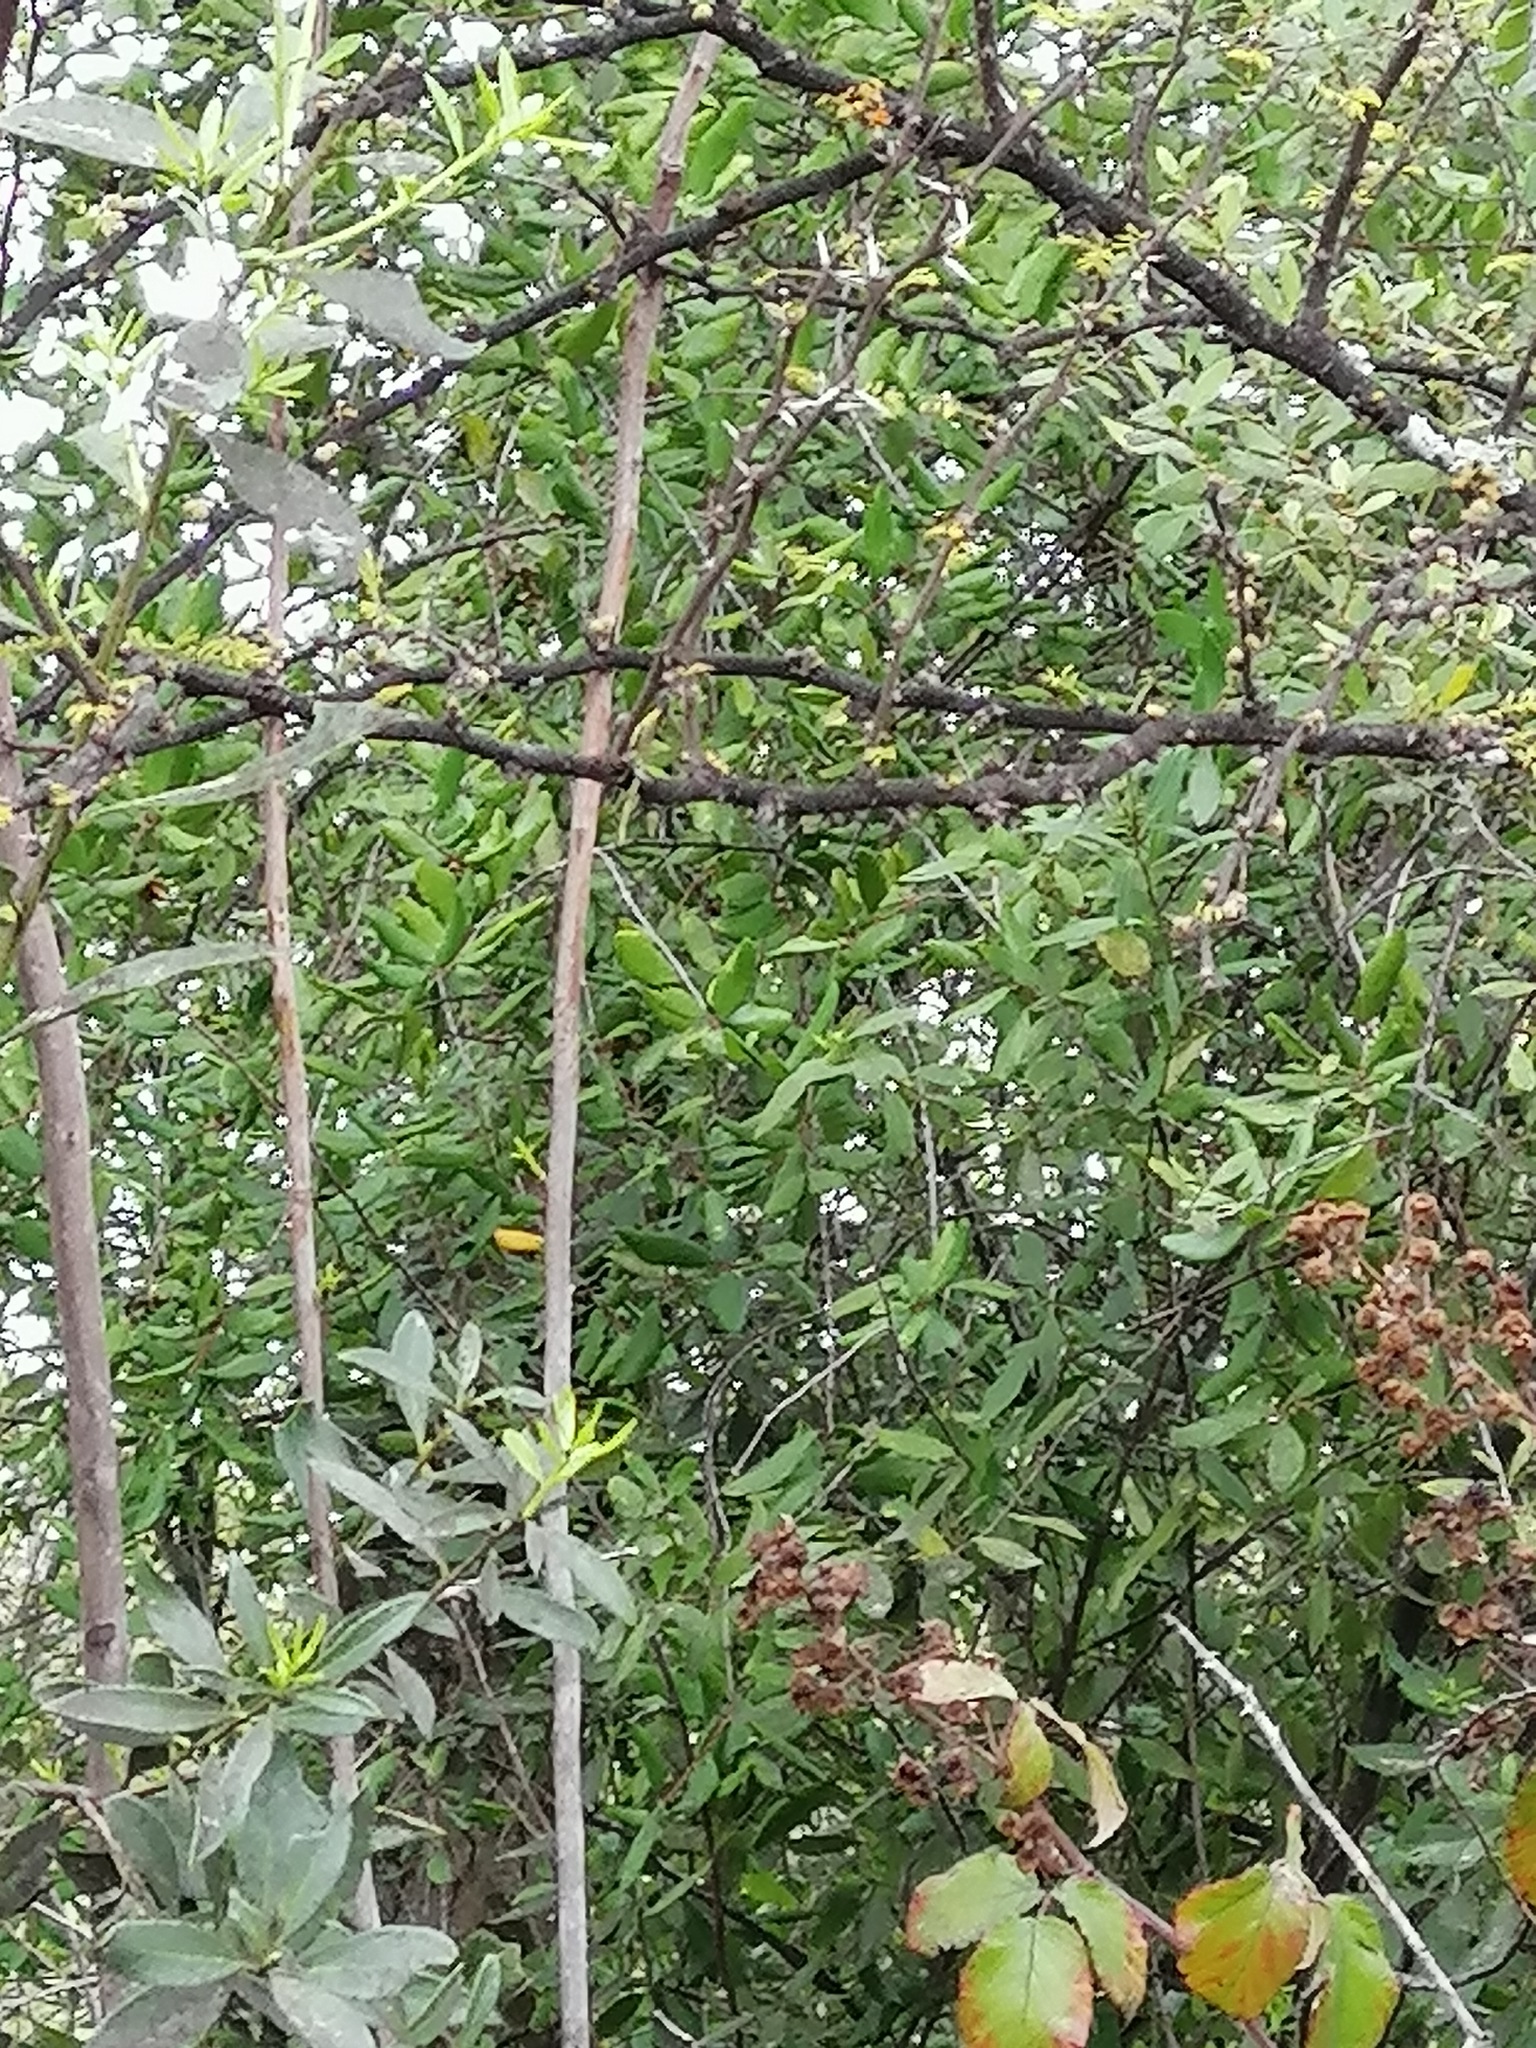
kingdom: Plantae
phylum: Tracheophyta
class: Magnoliopsida
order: Oxalidales
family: Elaeocarpaceae
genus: Crinodendron
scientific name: Crinodendron patagua
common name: Lily-of-the-valley-tree
